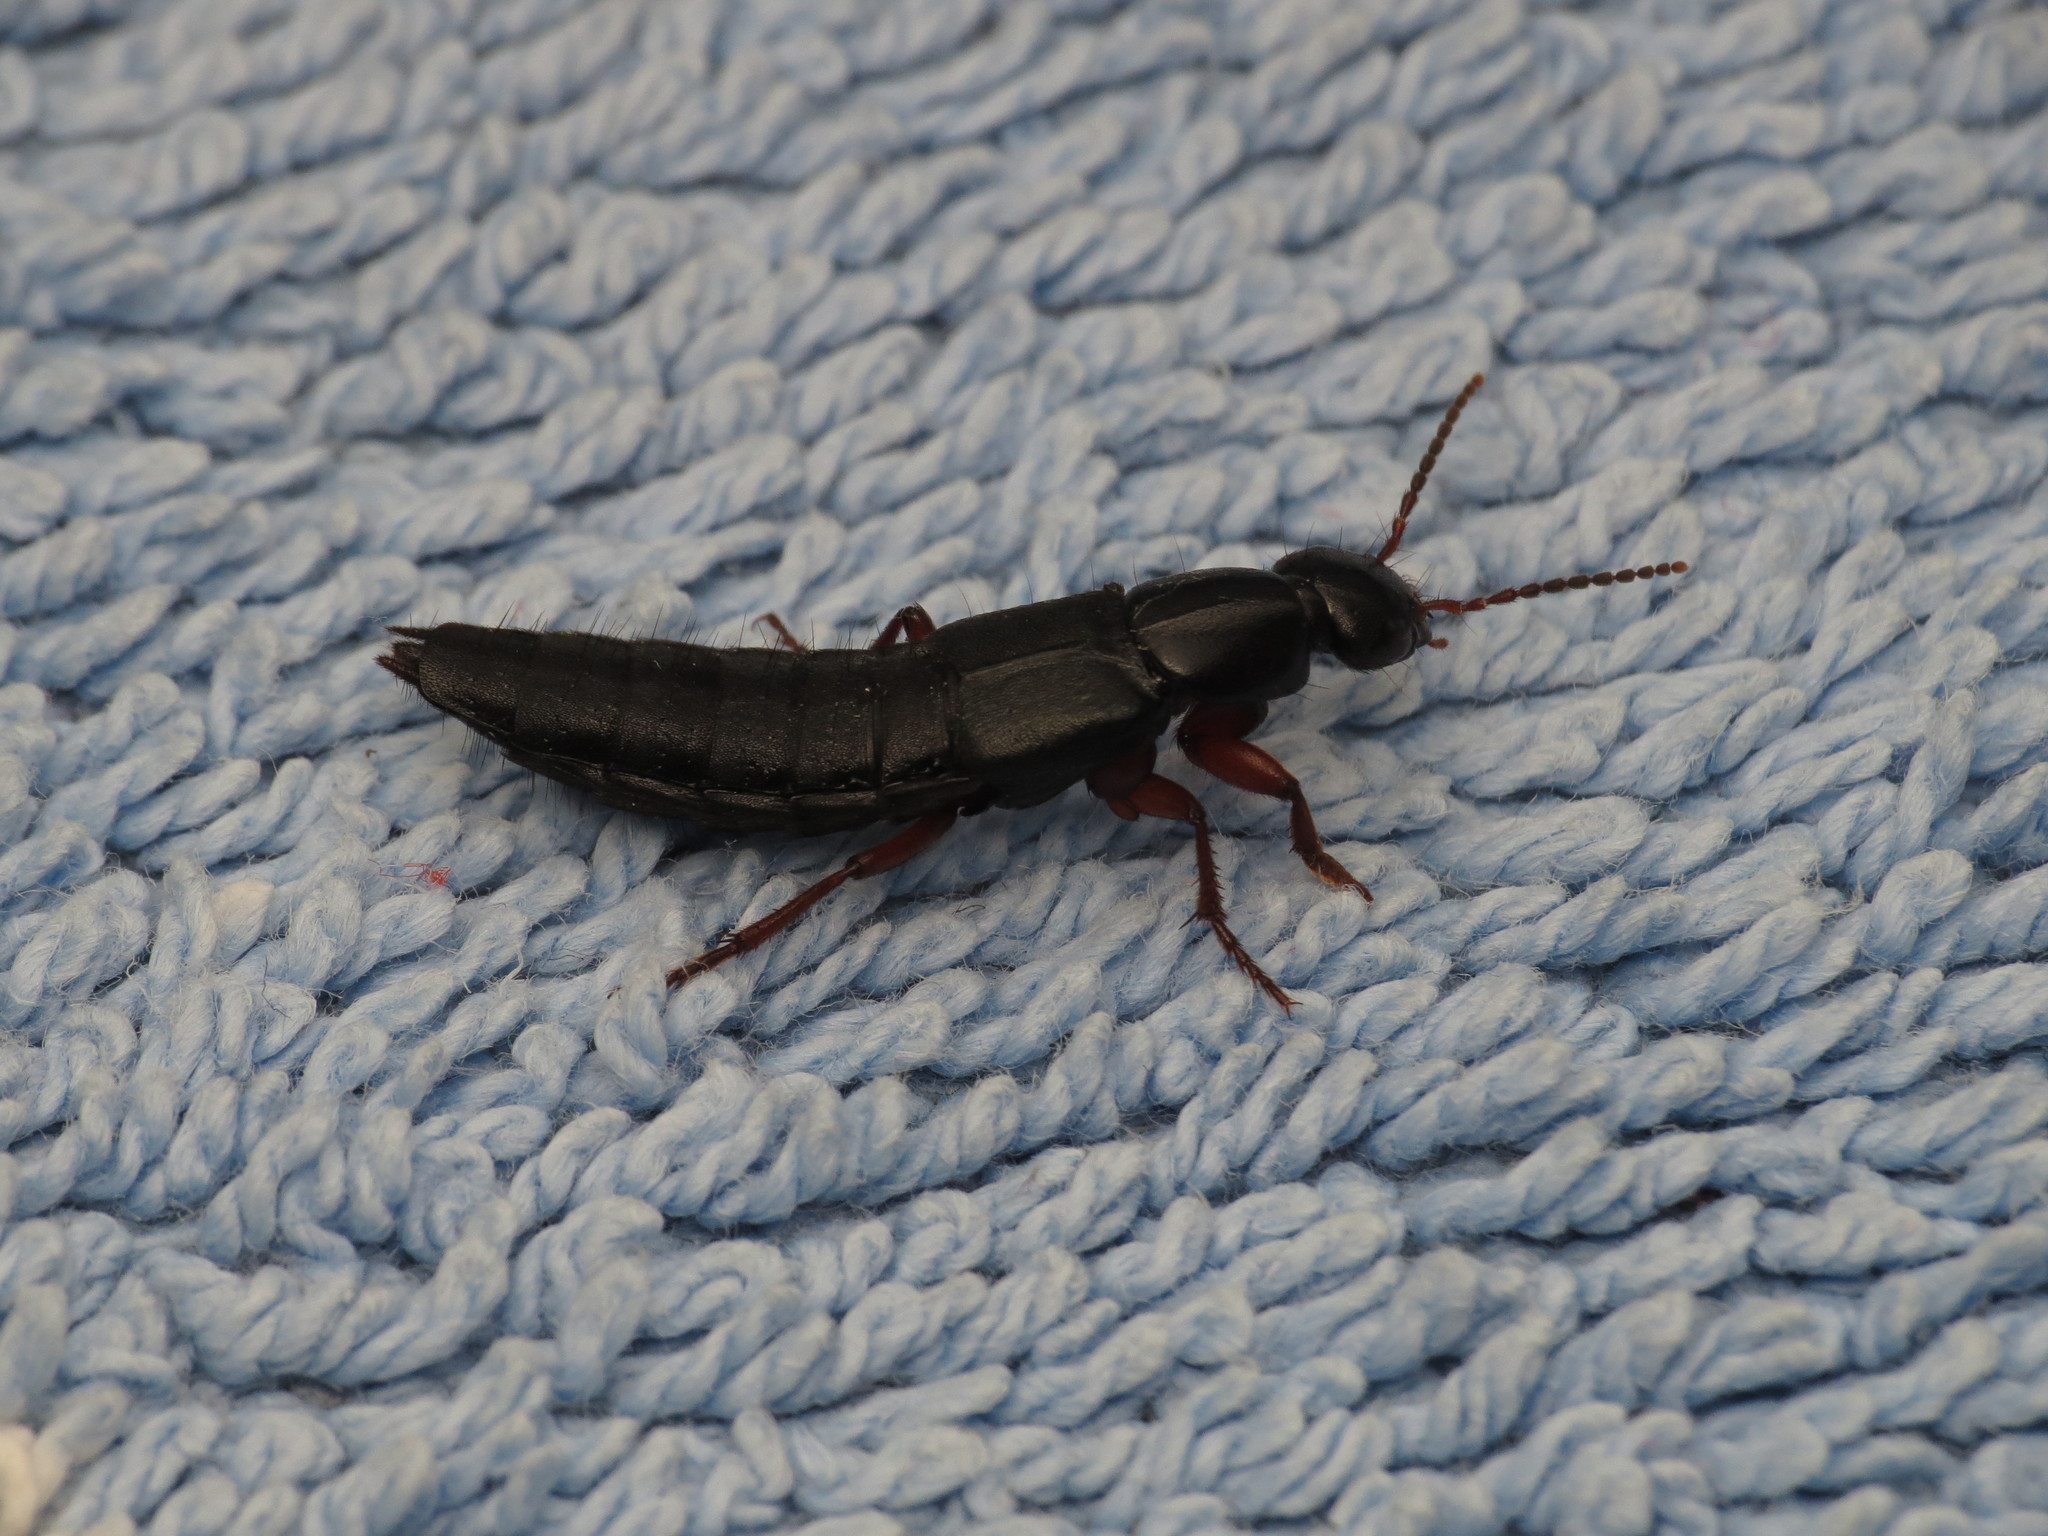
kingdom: Animalia
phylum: Arthropoda
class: Insecta
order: Coleoptera
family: Staphylinidae
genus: Tasgius
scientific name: Tasgius pedator
